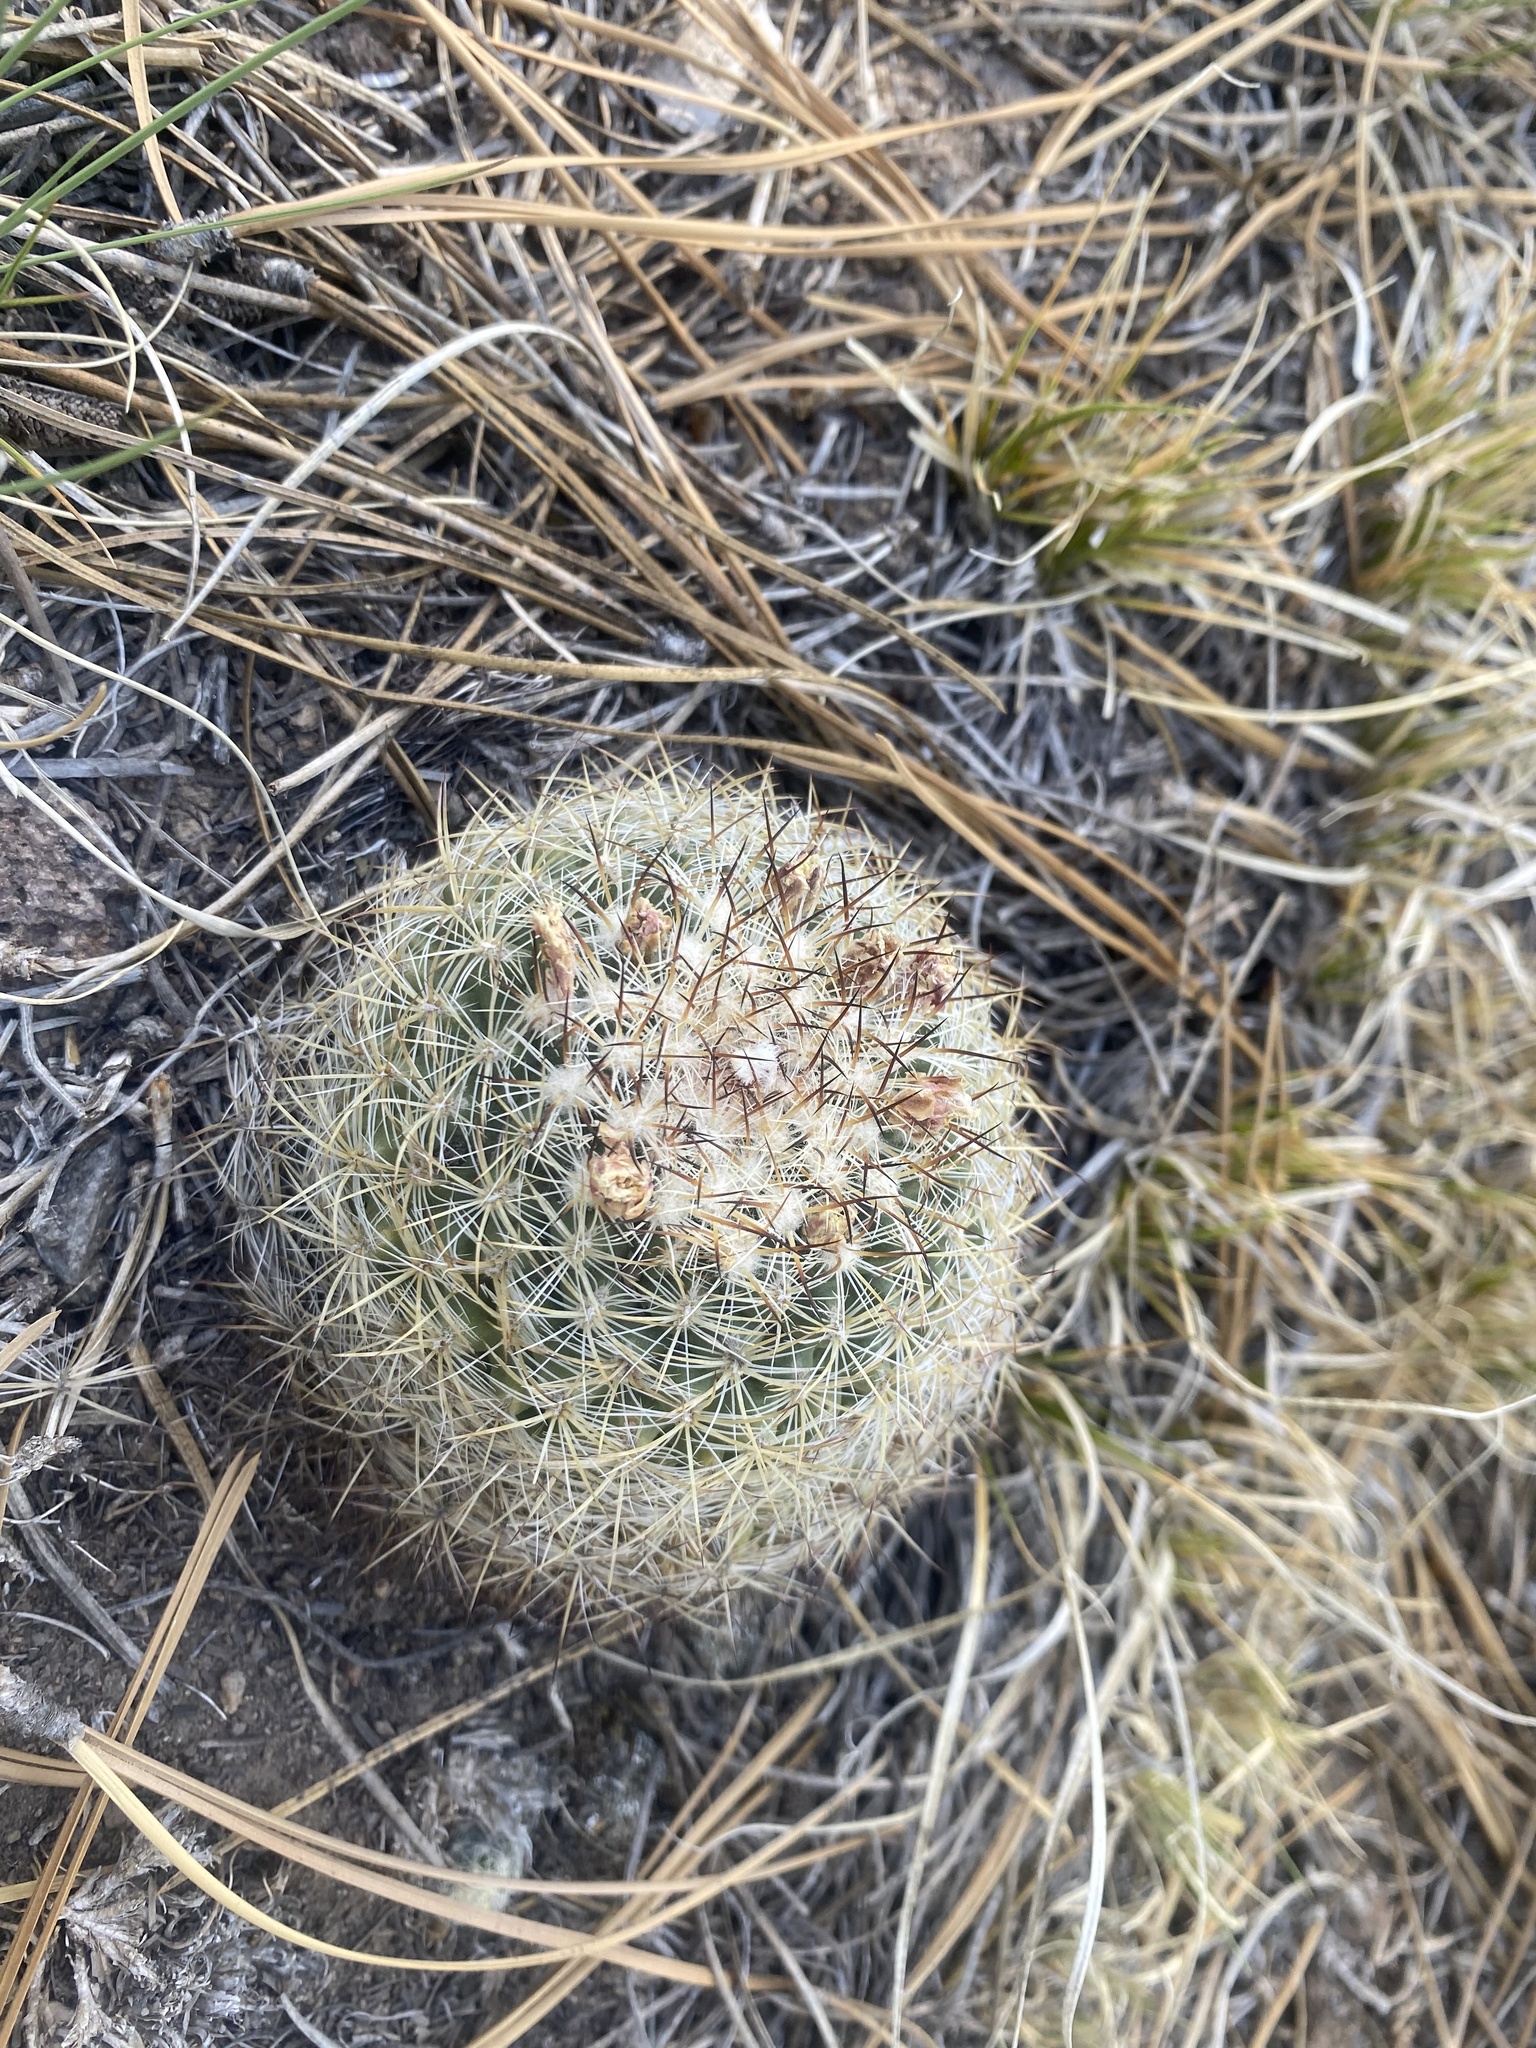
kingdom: Plantae
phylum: Tracheophyta
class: Magnoliopsida
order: Caryophyllales
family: Cactaceae
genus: Pediocactus
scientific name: Pediocactus simpsonii
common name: Simpson's hedgehog cactus
